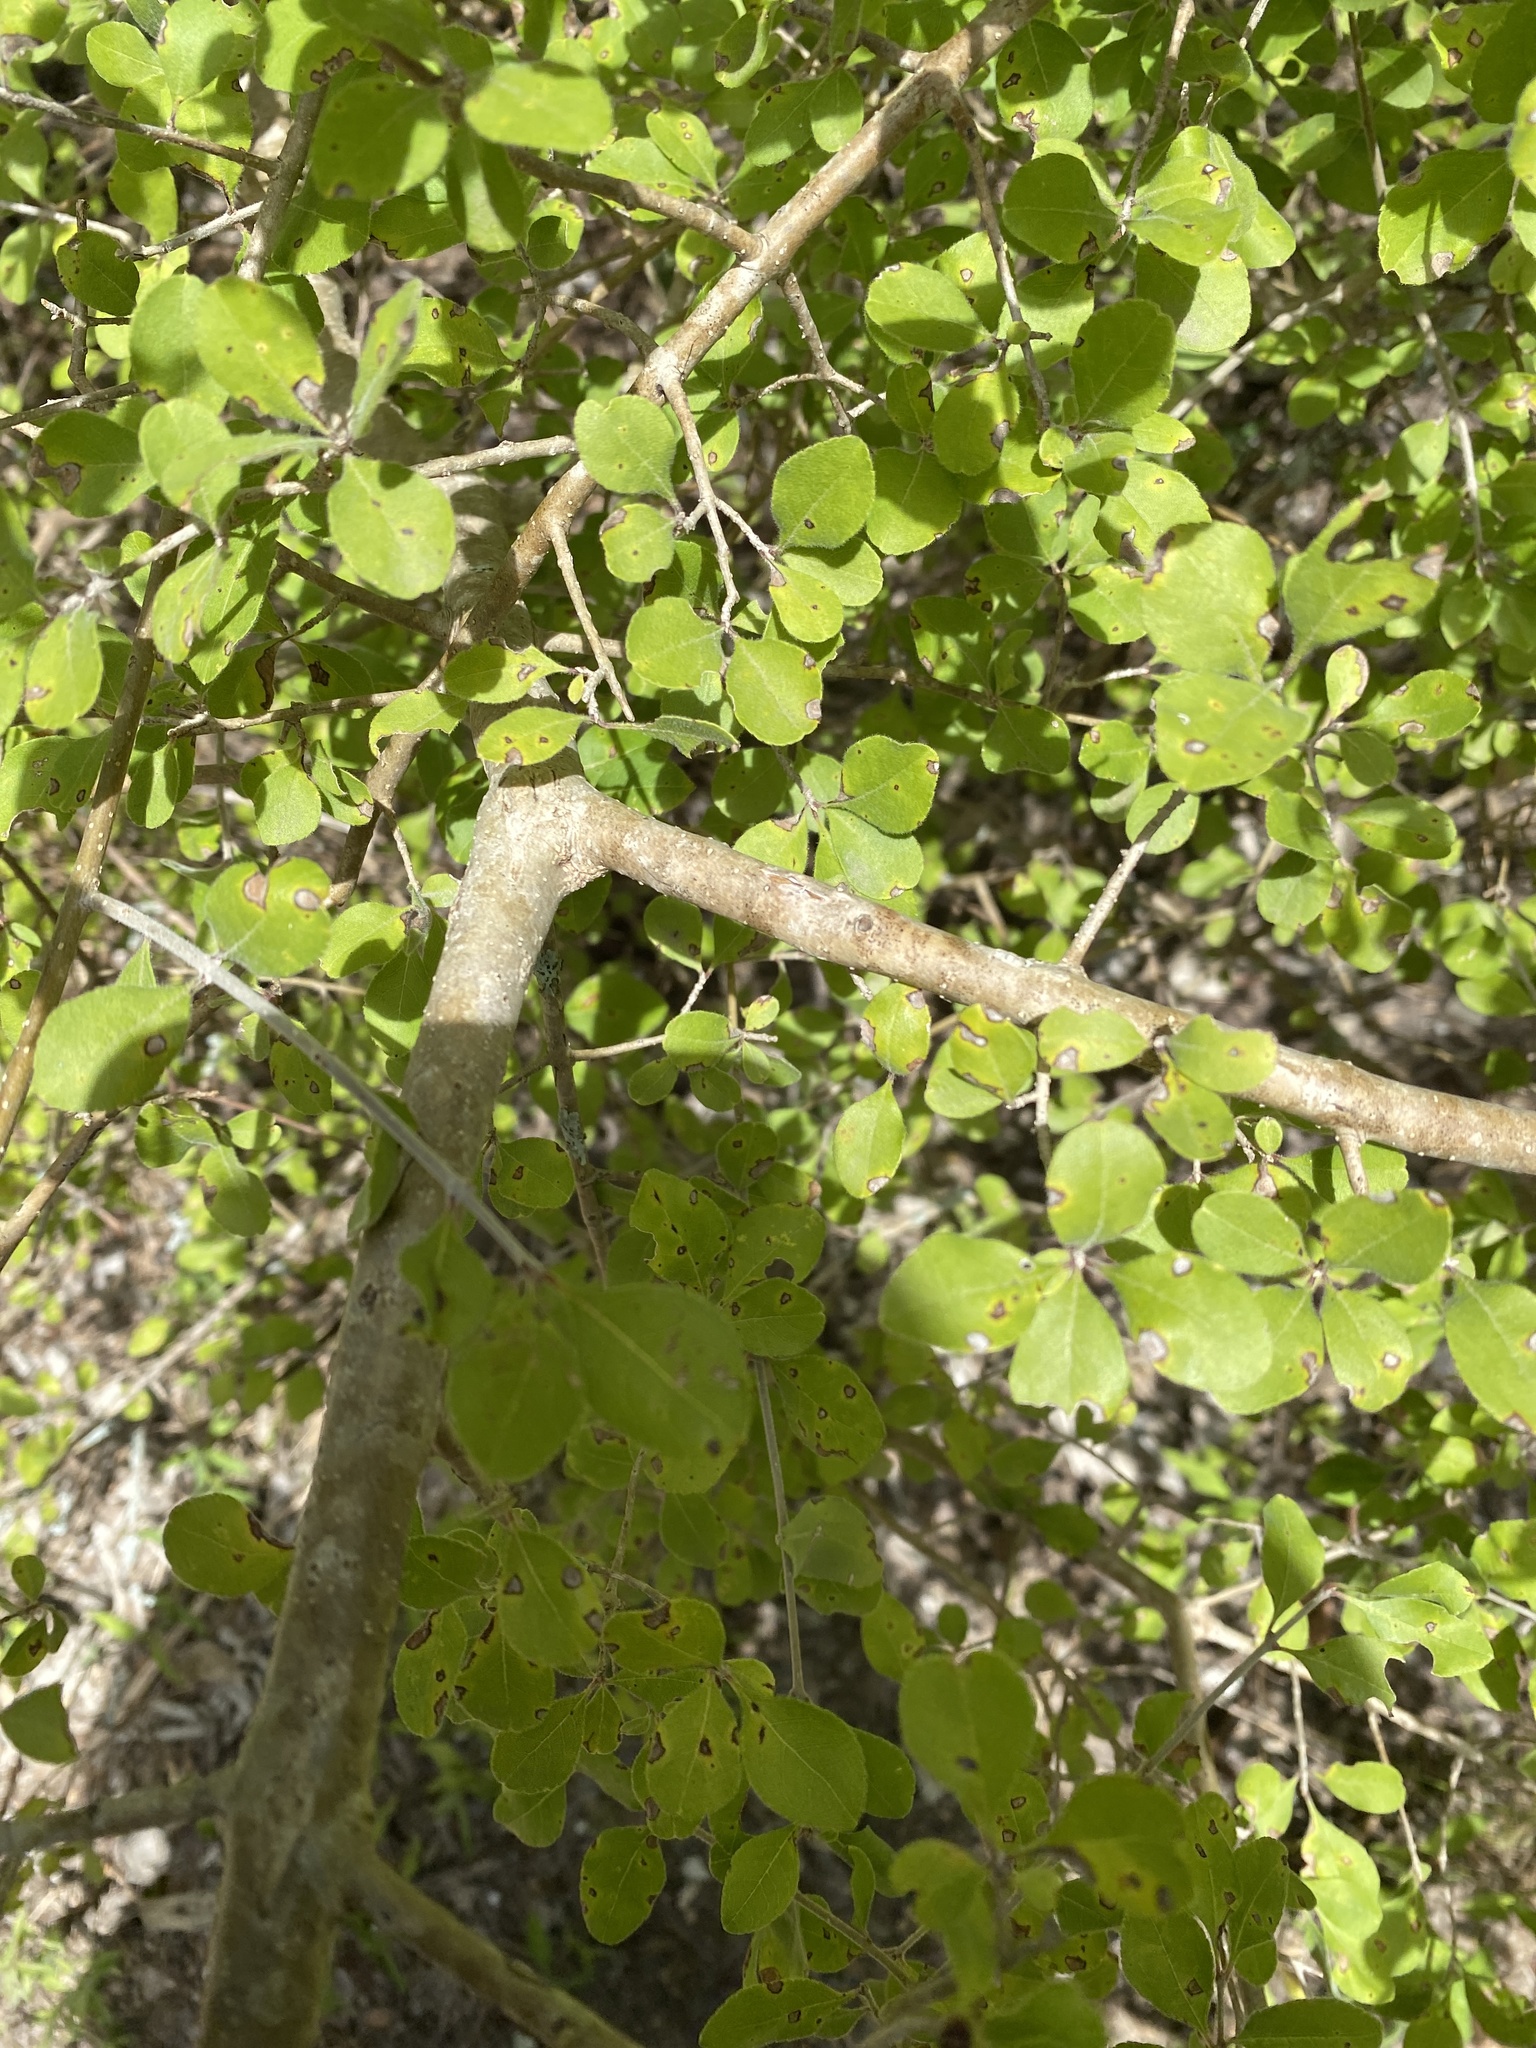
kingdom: Plantae
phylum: Tracheophyta
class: Magnoliopsida
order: Lamiales
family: Oleaceae
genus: Forestiera
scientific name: Forestiera pubescens
